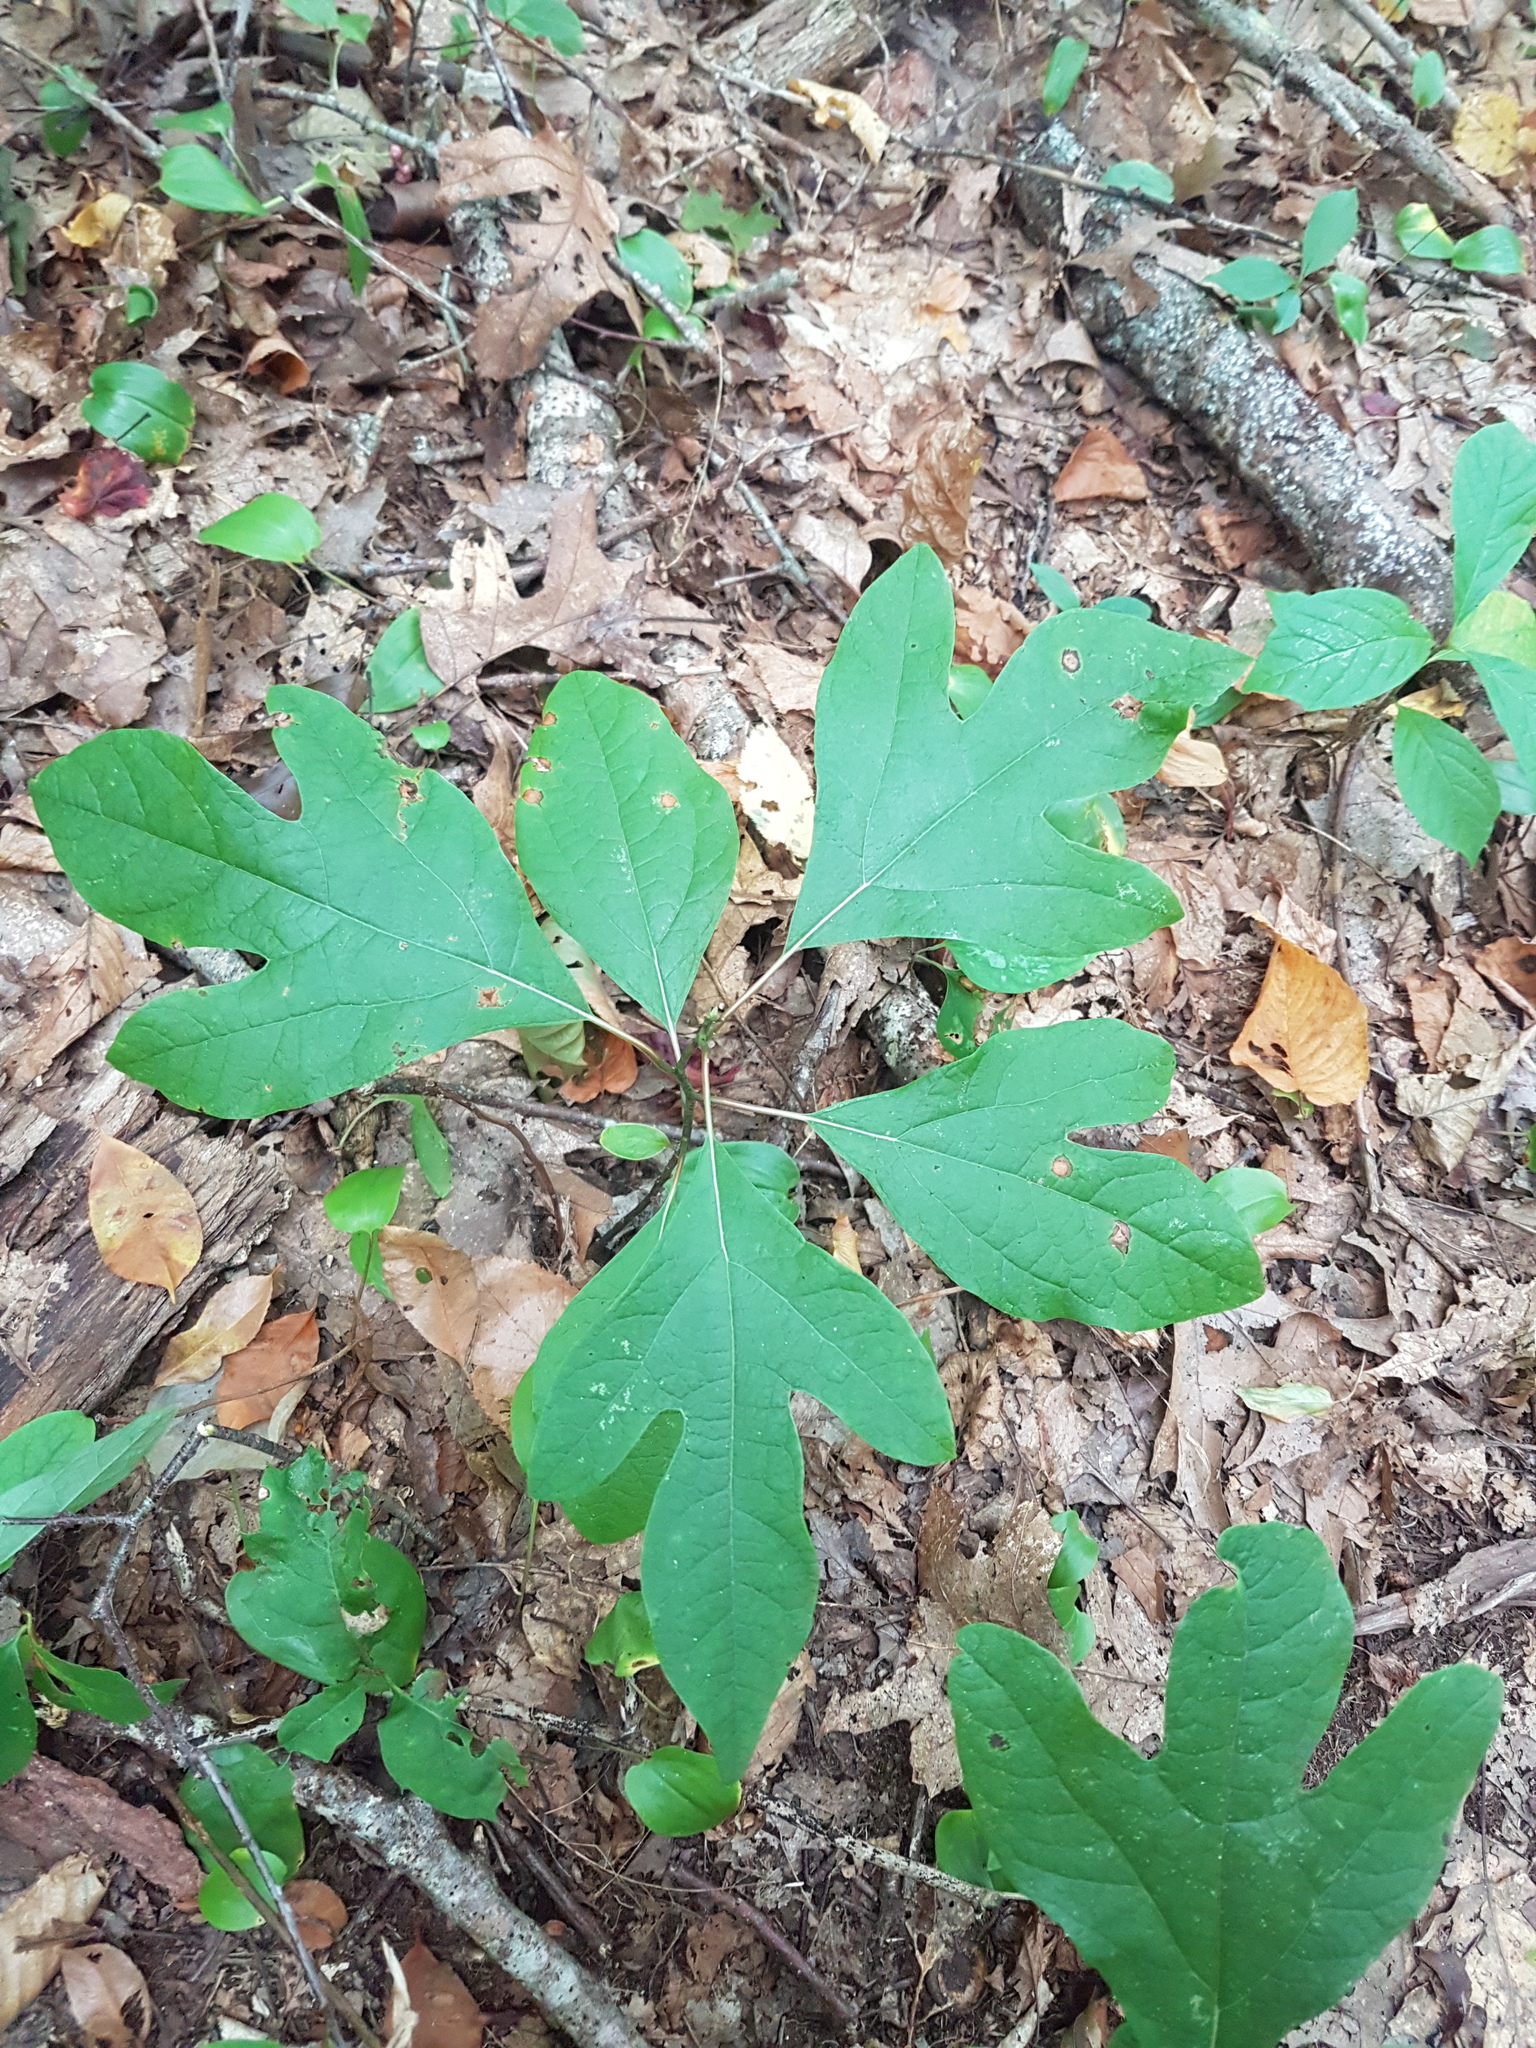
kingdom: Plantae
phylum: Tracheophyta
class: Magnoliopsida
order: Laurales
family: Lauraceae
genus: Sassafras
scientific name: Sassafras albidum
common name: Sassafras
